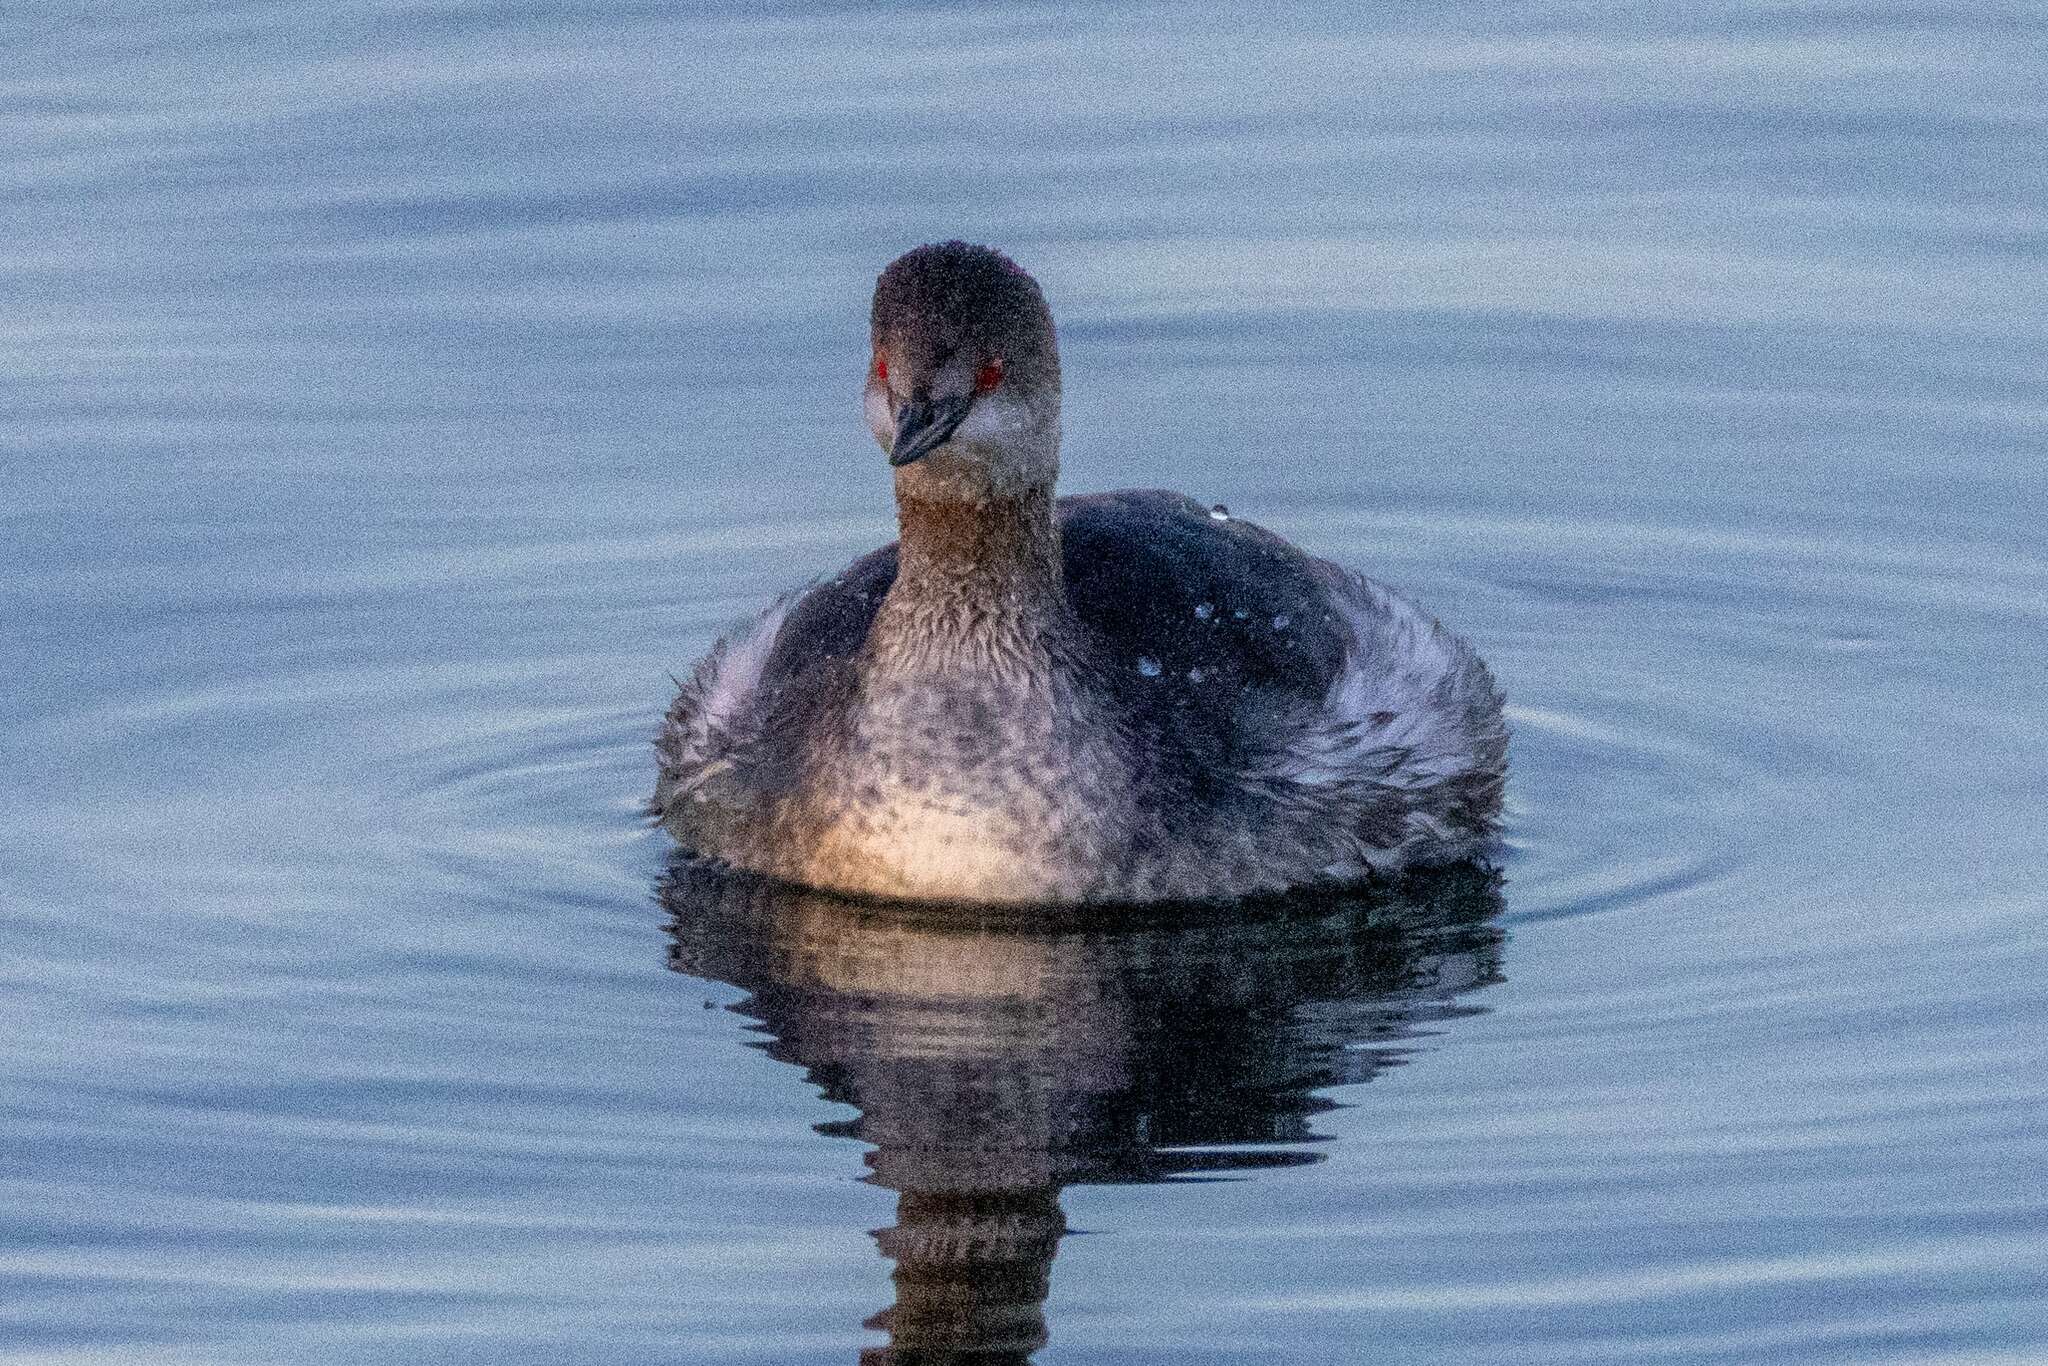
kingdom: Animalia
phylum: Chordata
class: Aves
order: Podicipediformes
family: Podicipedidae
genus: Podiceps
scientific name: Podiceps nigricollis
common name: Black-necked grebe
